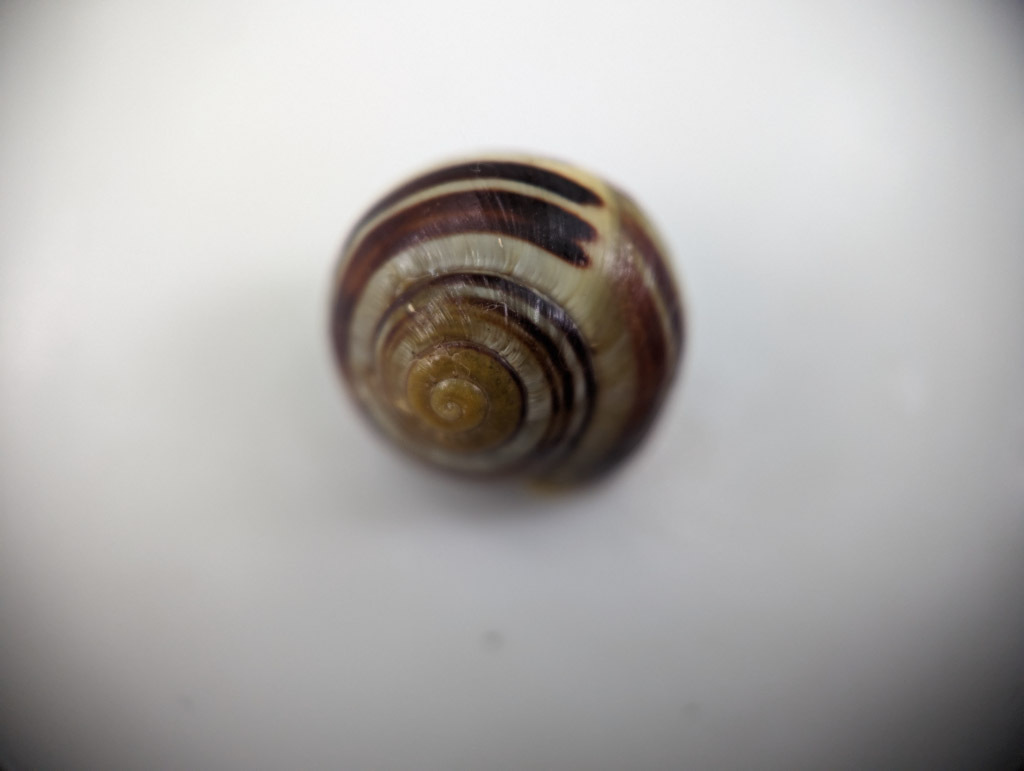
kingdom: Animalia
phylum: Mollusca
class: Gastropoda
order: Stylommatophora
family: Helicidae
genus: Cepaea
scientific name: Cepaea hortensis
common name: White-lip gardensnail
